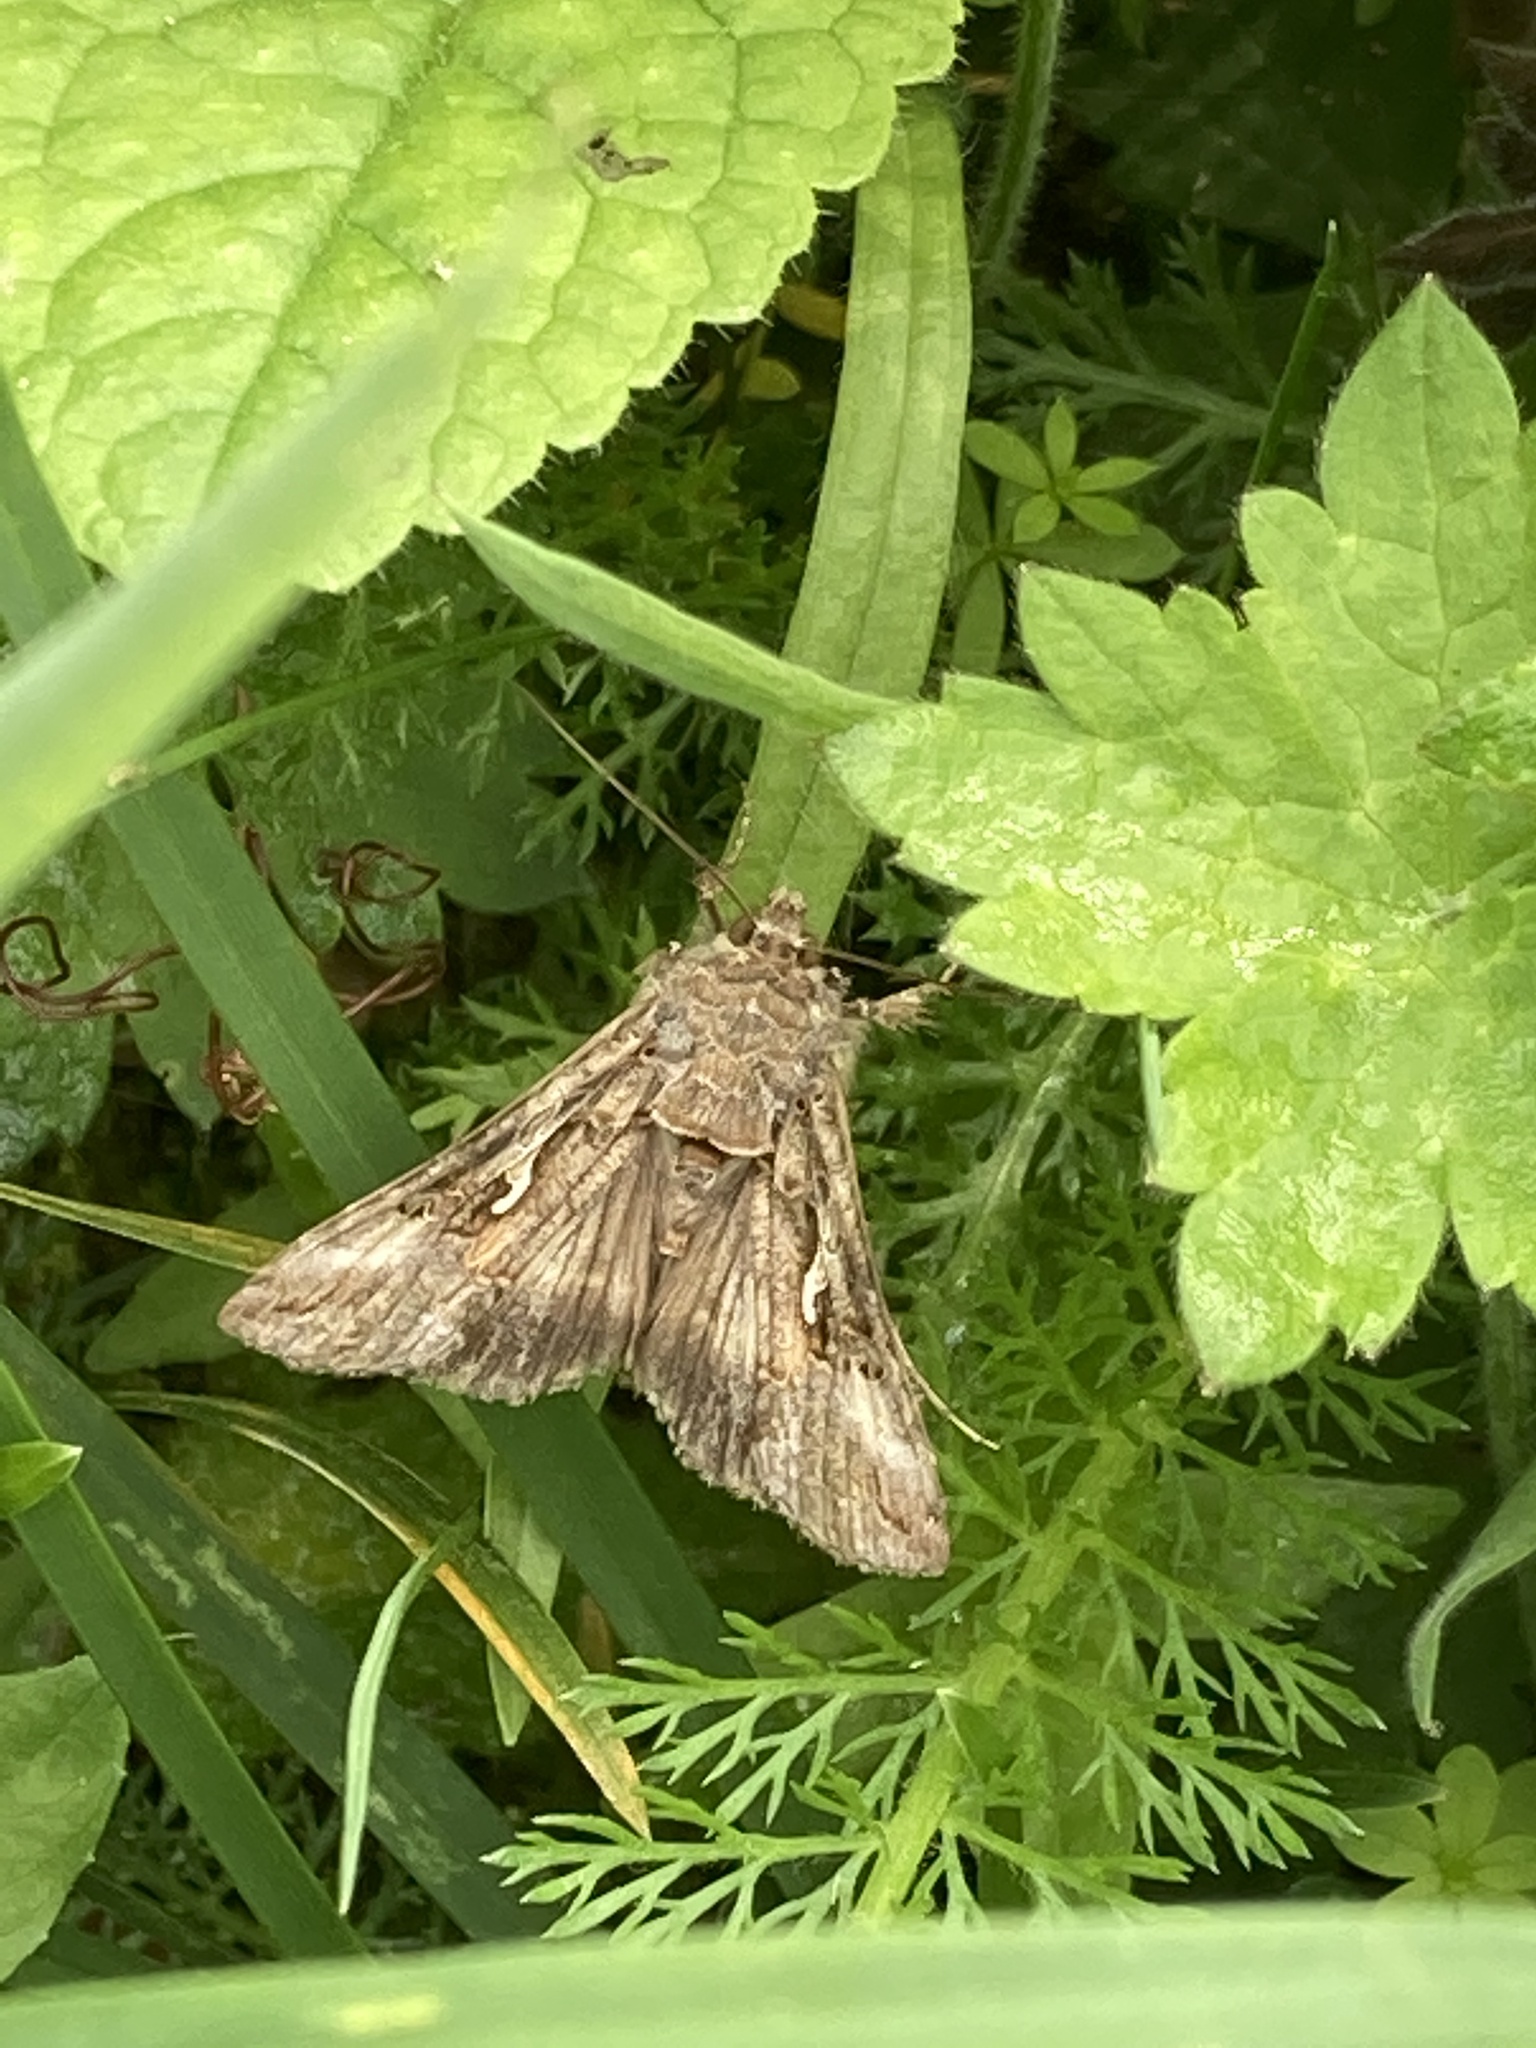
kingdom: Animalia
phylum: Arthropoda
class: Insecta
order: Lepidoptera
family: Noctuidae
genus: Autographa
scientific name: Autographa gamma
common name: Silver y
